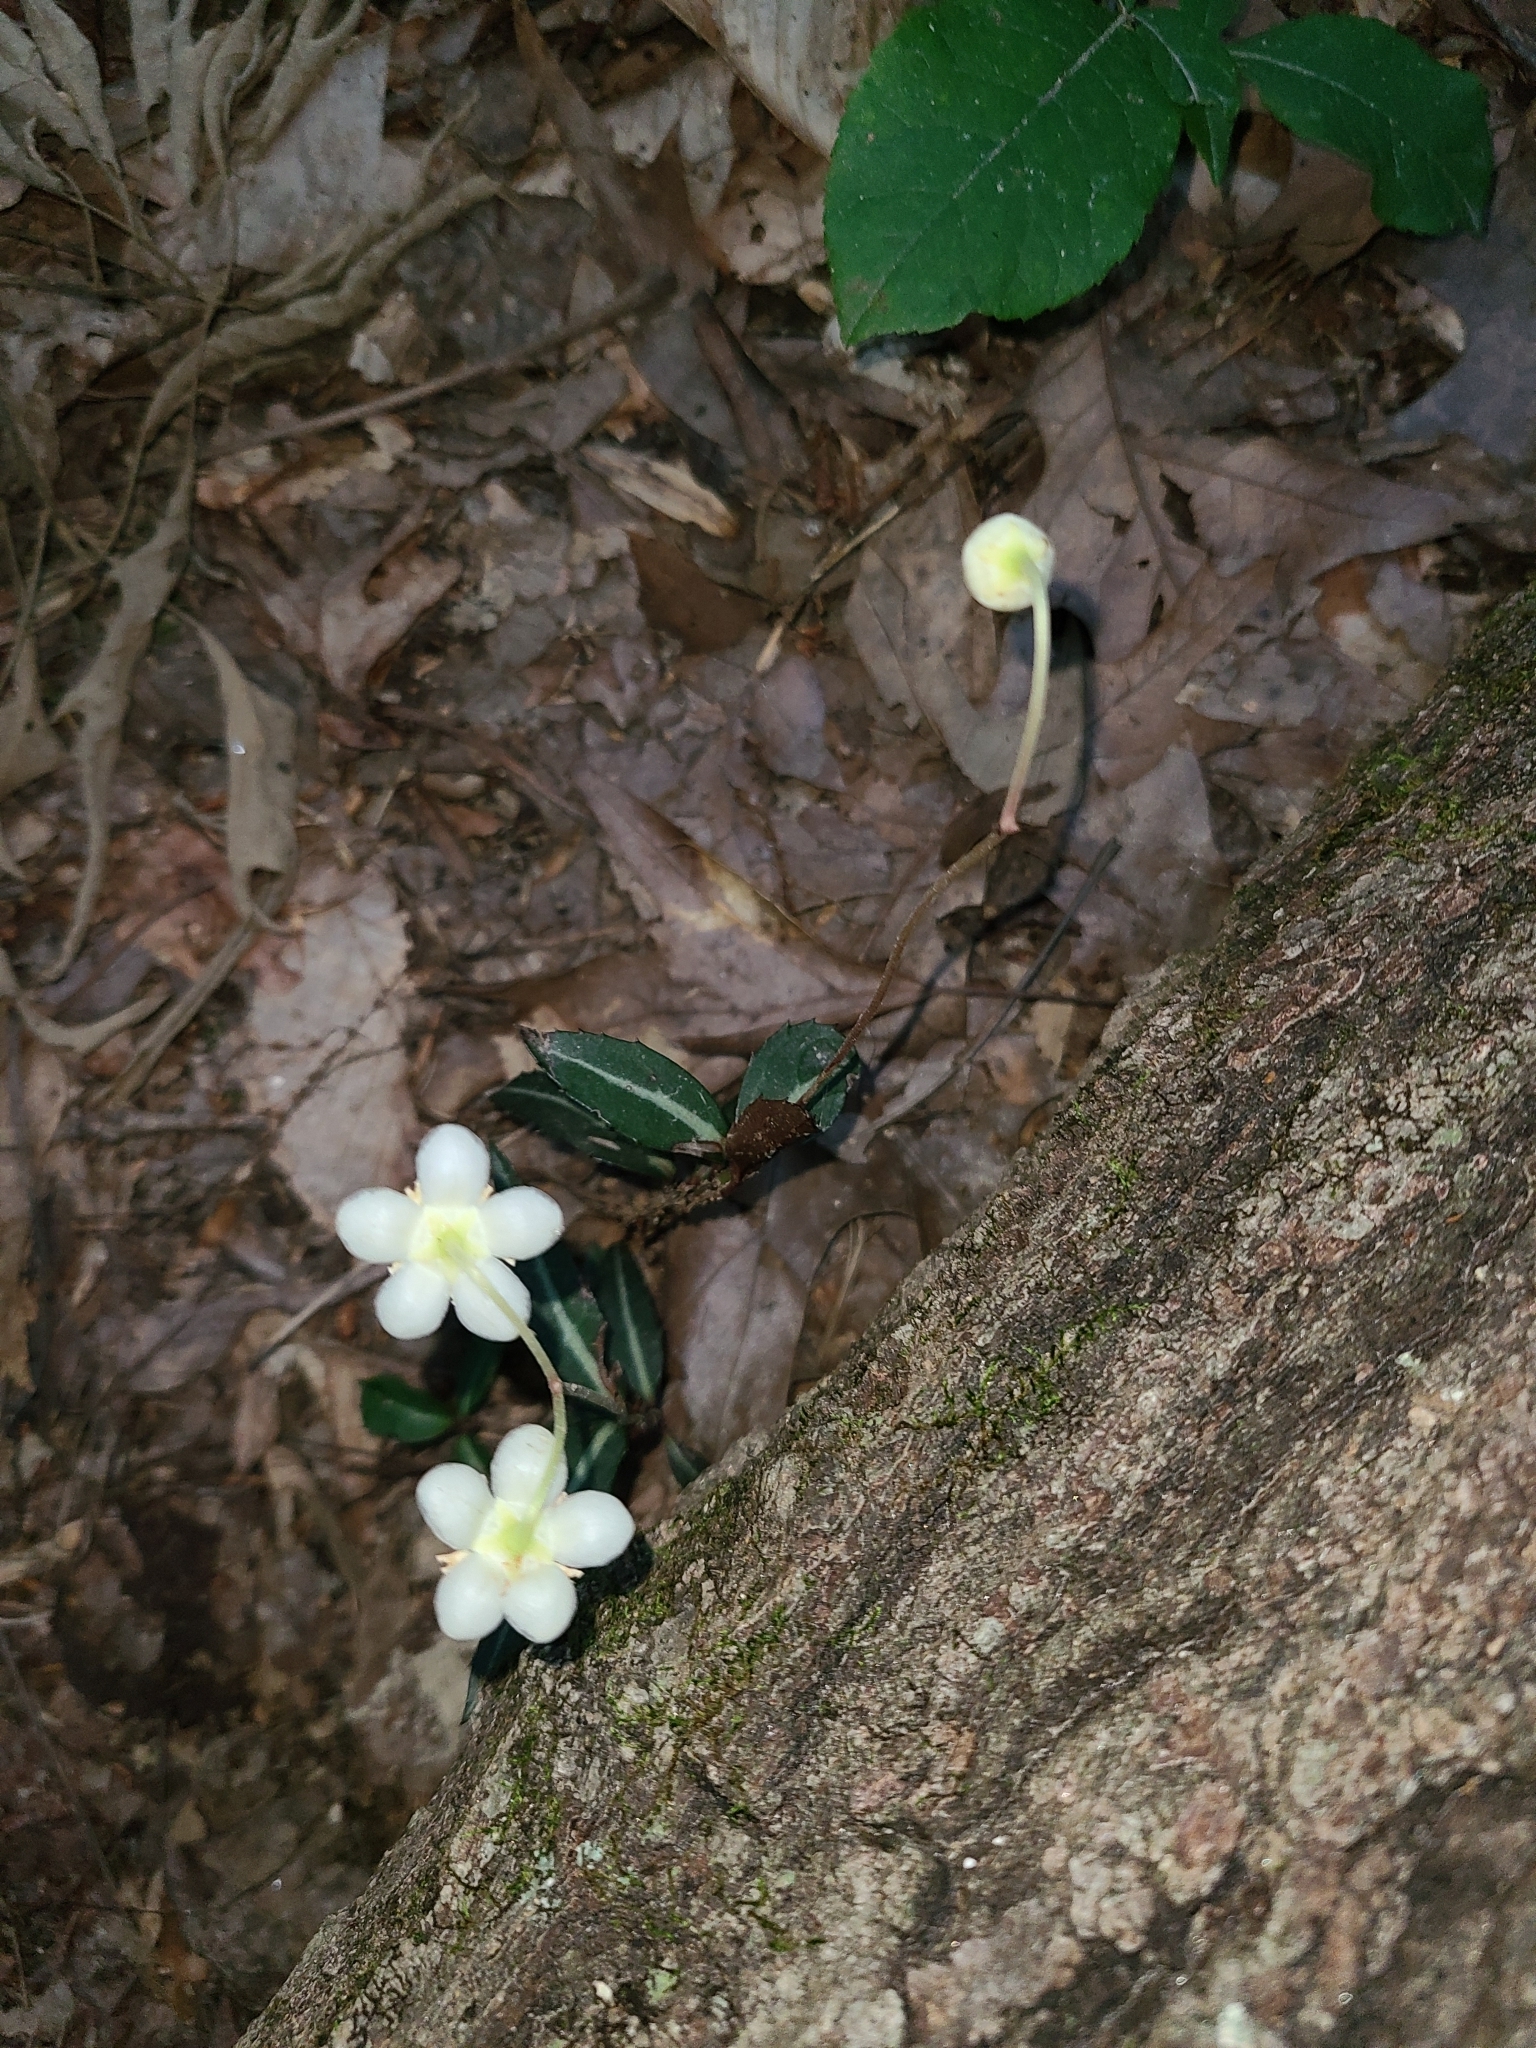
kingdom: Plantae
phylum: Tracheophyta
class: Magnoliopsida
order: Ericales
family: Ericaceae
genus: Chimaphila
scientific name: Chimaphila maculata
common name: Spotted pipsissewa
